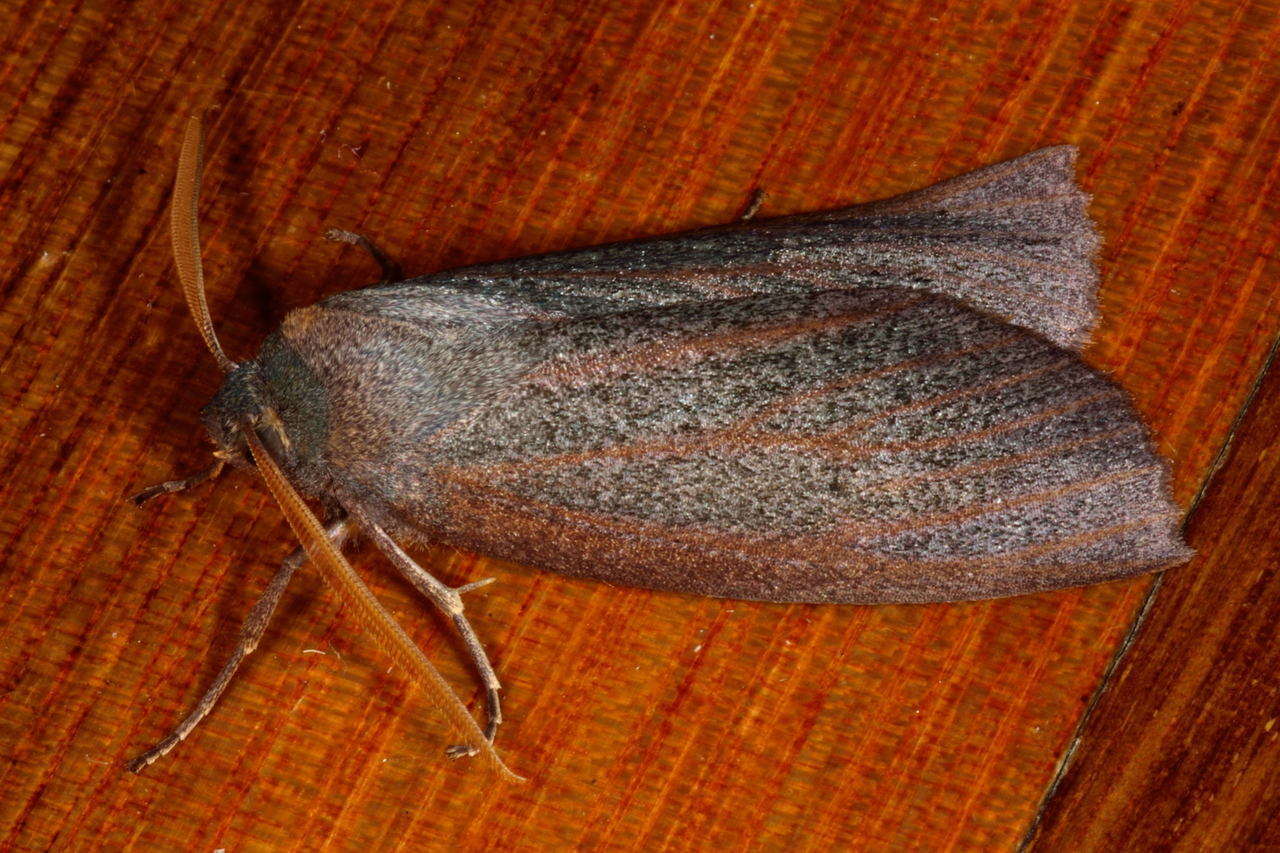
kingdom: Animalia
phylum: Arthropoda
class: Insecta
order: Lepidoptera
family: Geometridae
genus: Paralaea
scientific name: Paralaea porphyrinaria
